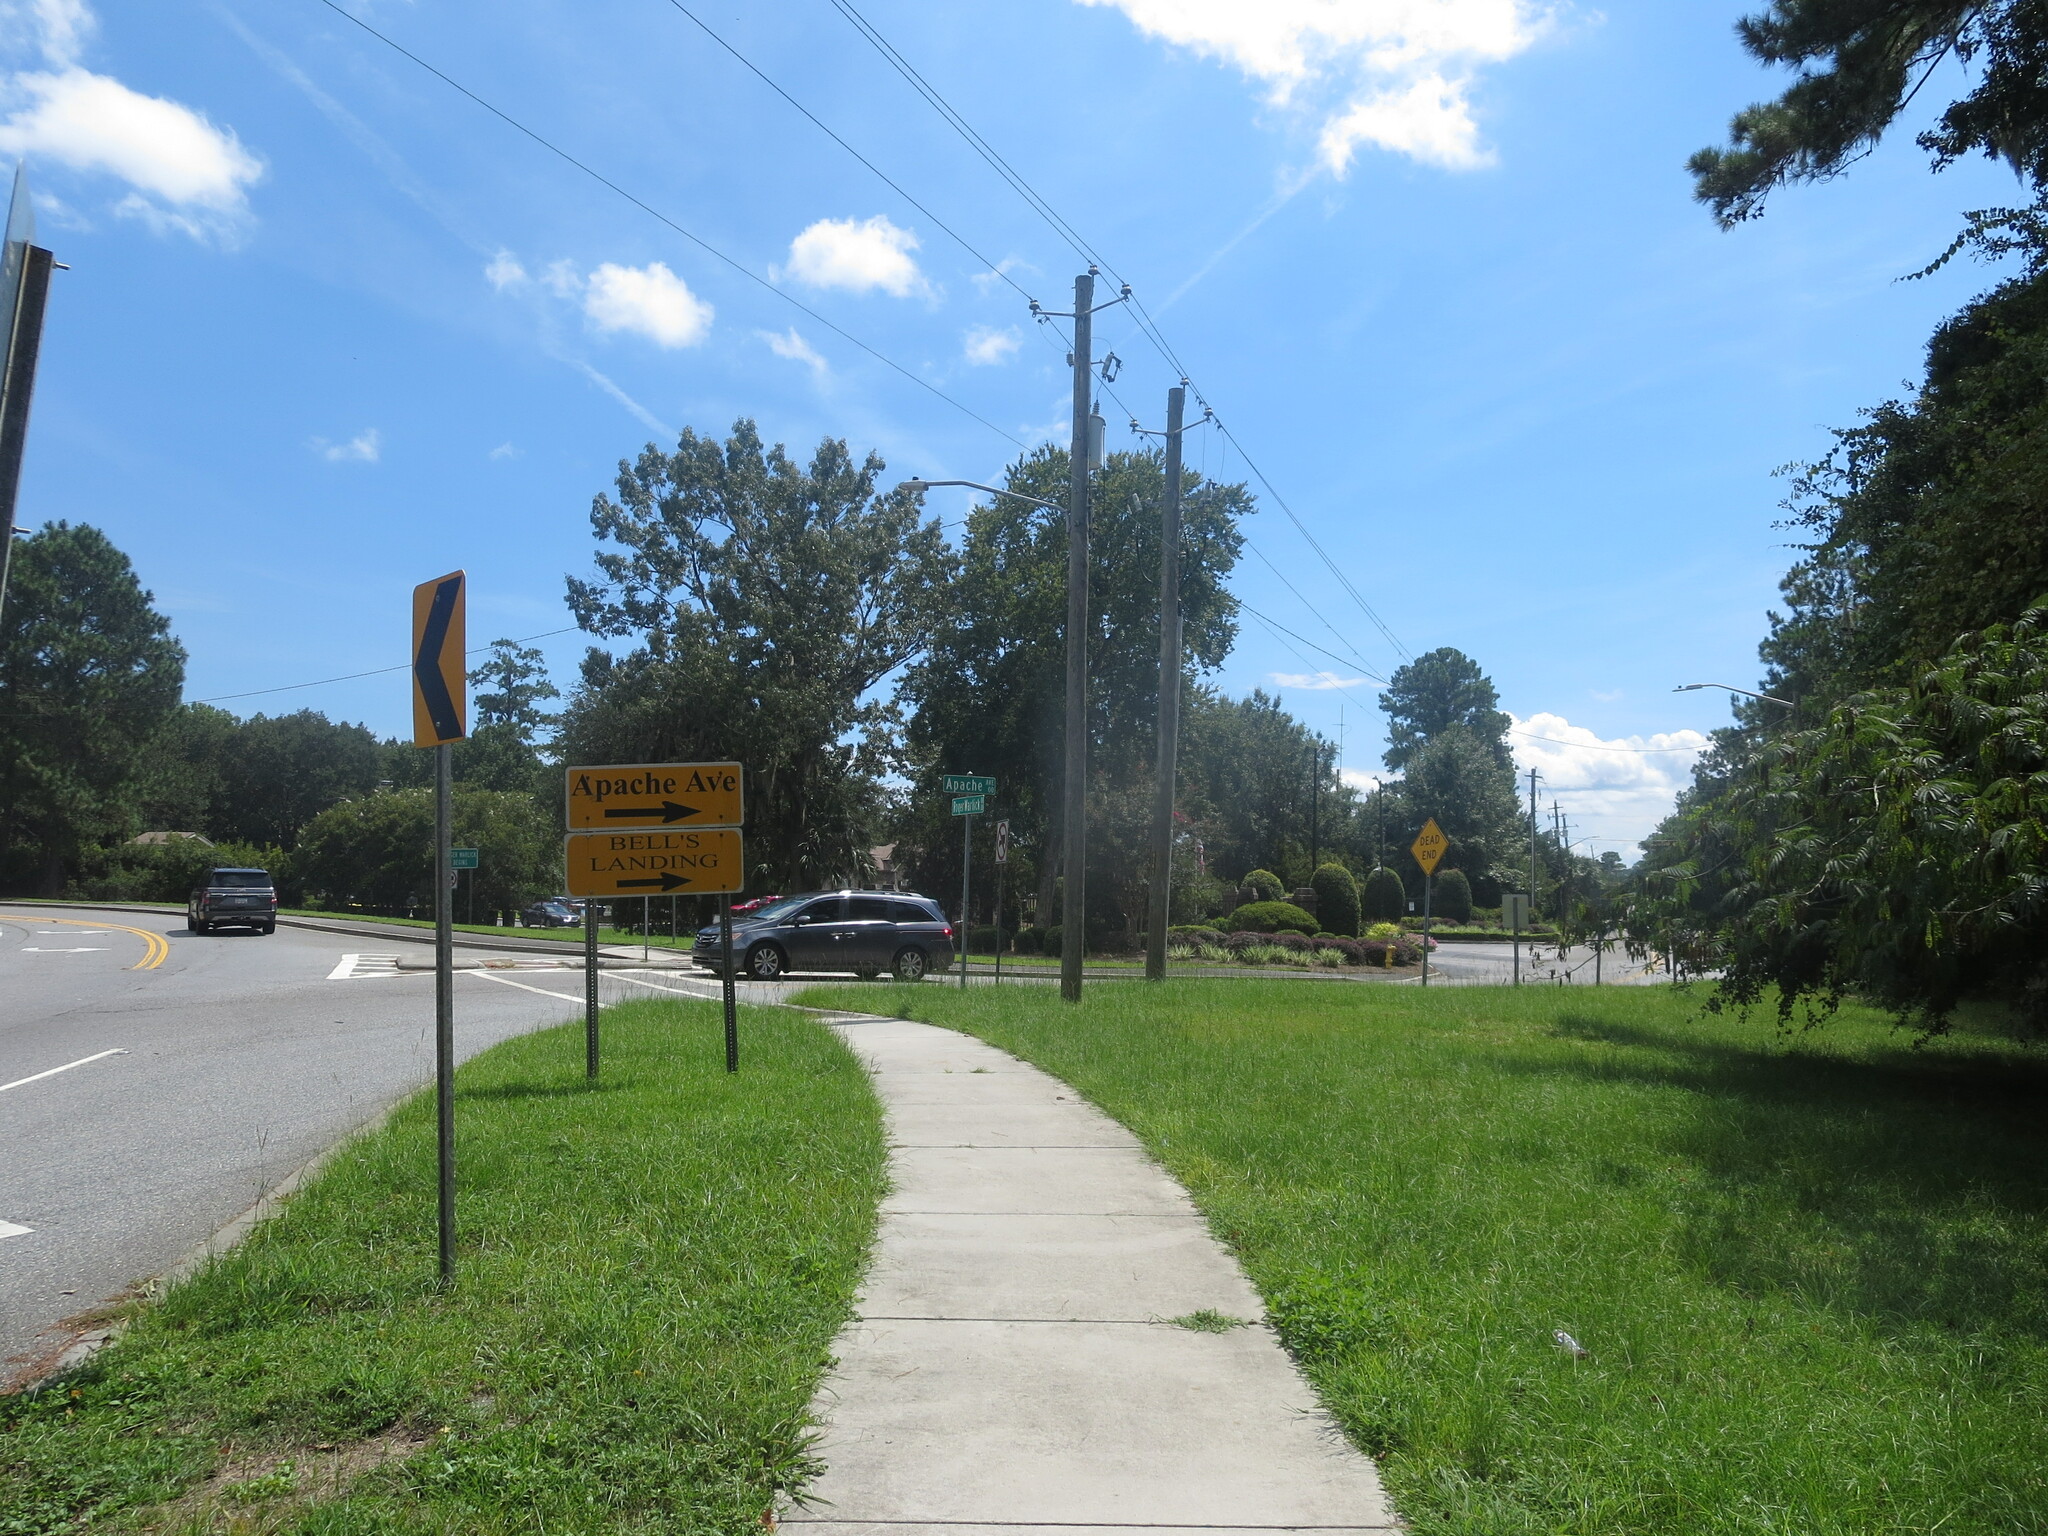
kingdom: Plantae
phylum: Tracheophyta
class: Magnoliopsida
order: Fabales
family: Fabaceae
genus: Albizia
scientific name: Albizia julibrissin
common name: Silktree
